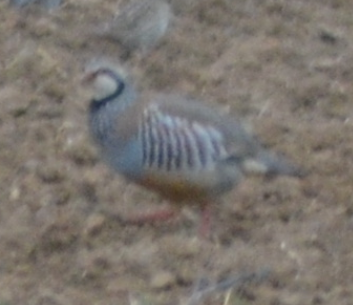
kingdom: Animalia
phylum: Chordata
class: Aves
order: Galliformes
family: Phasianidae
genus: Alectoris
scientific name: Alectoris rufa
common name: Red-legged partridge
